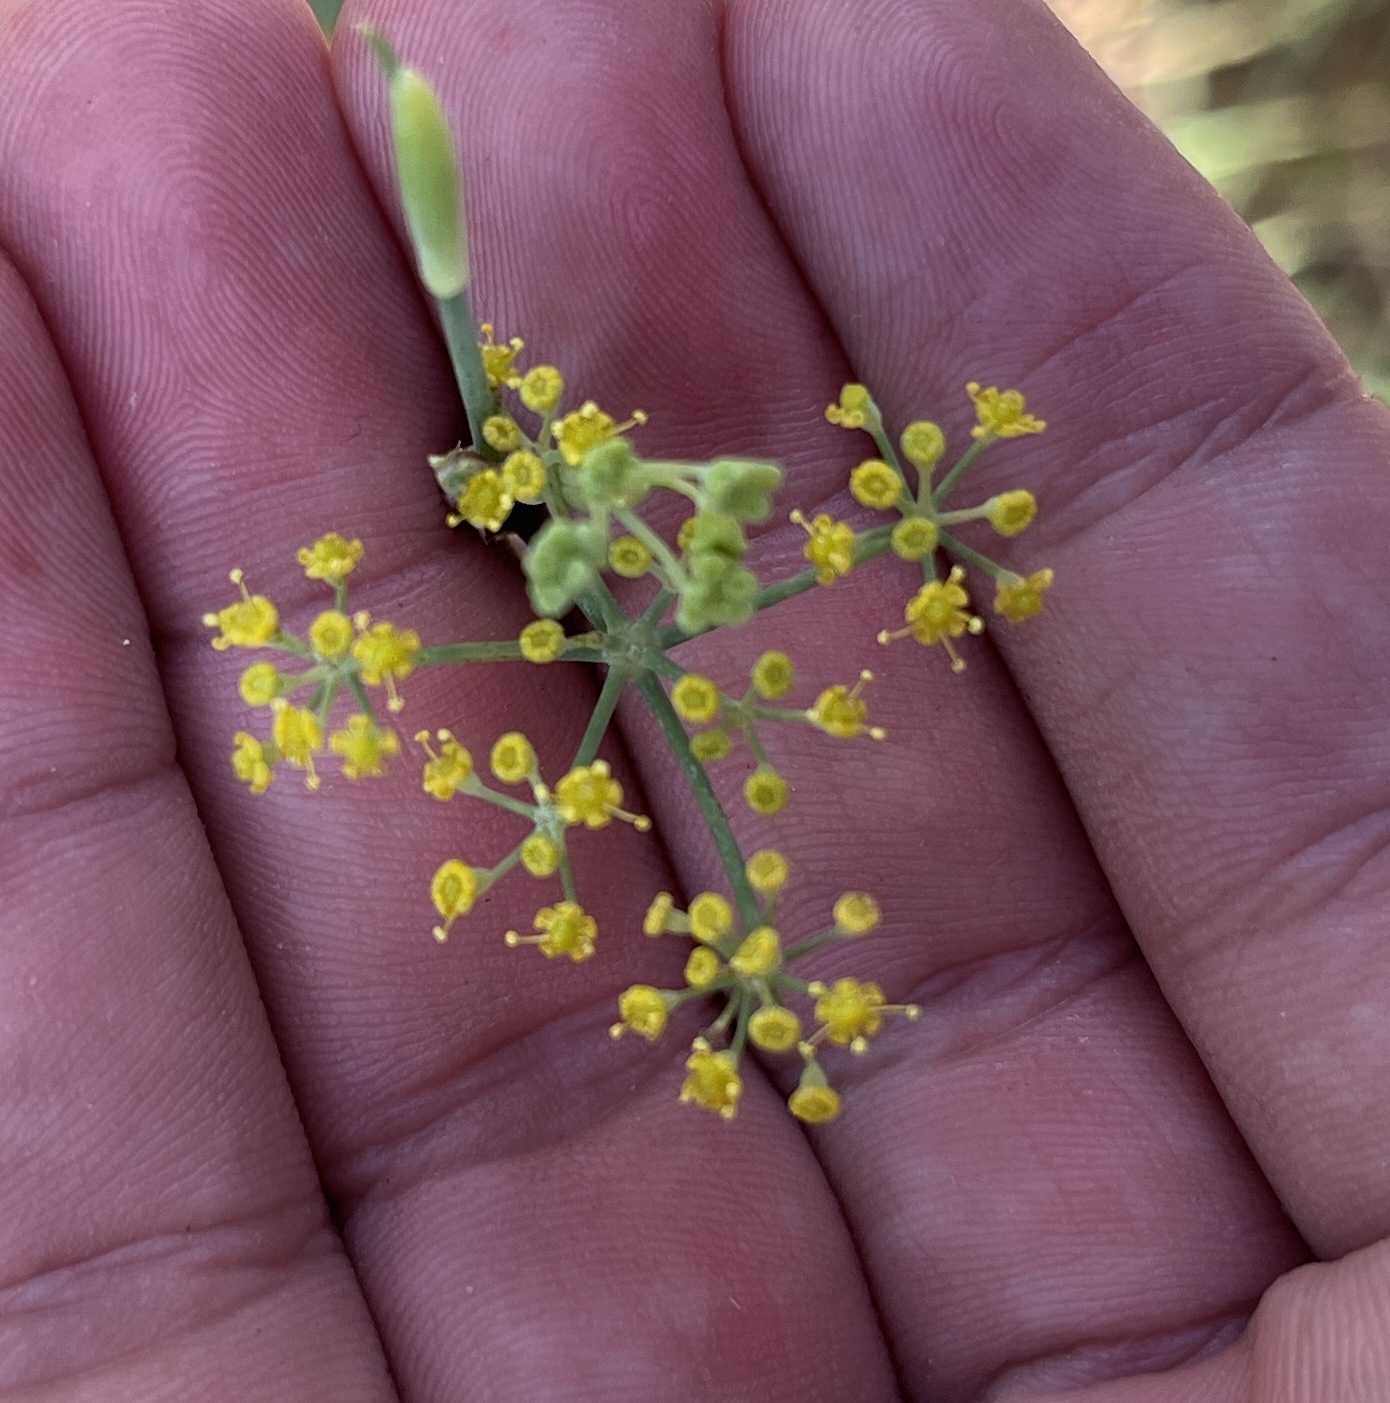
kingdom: Plantae
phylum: Tracheophyta
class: Magnoliopsida
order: Apiales
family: Apiaceae
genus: Foeniculum
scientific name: Foeniculum vulgare
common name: Fennel
